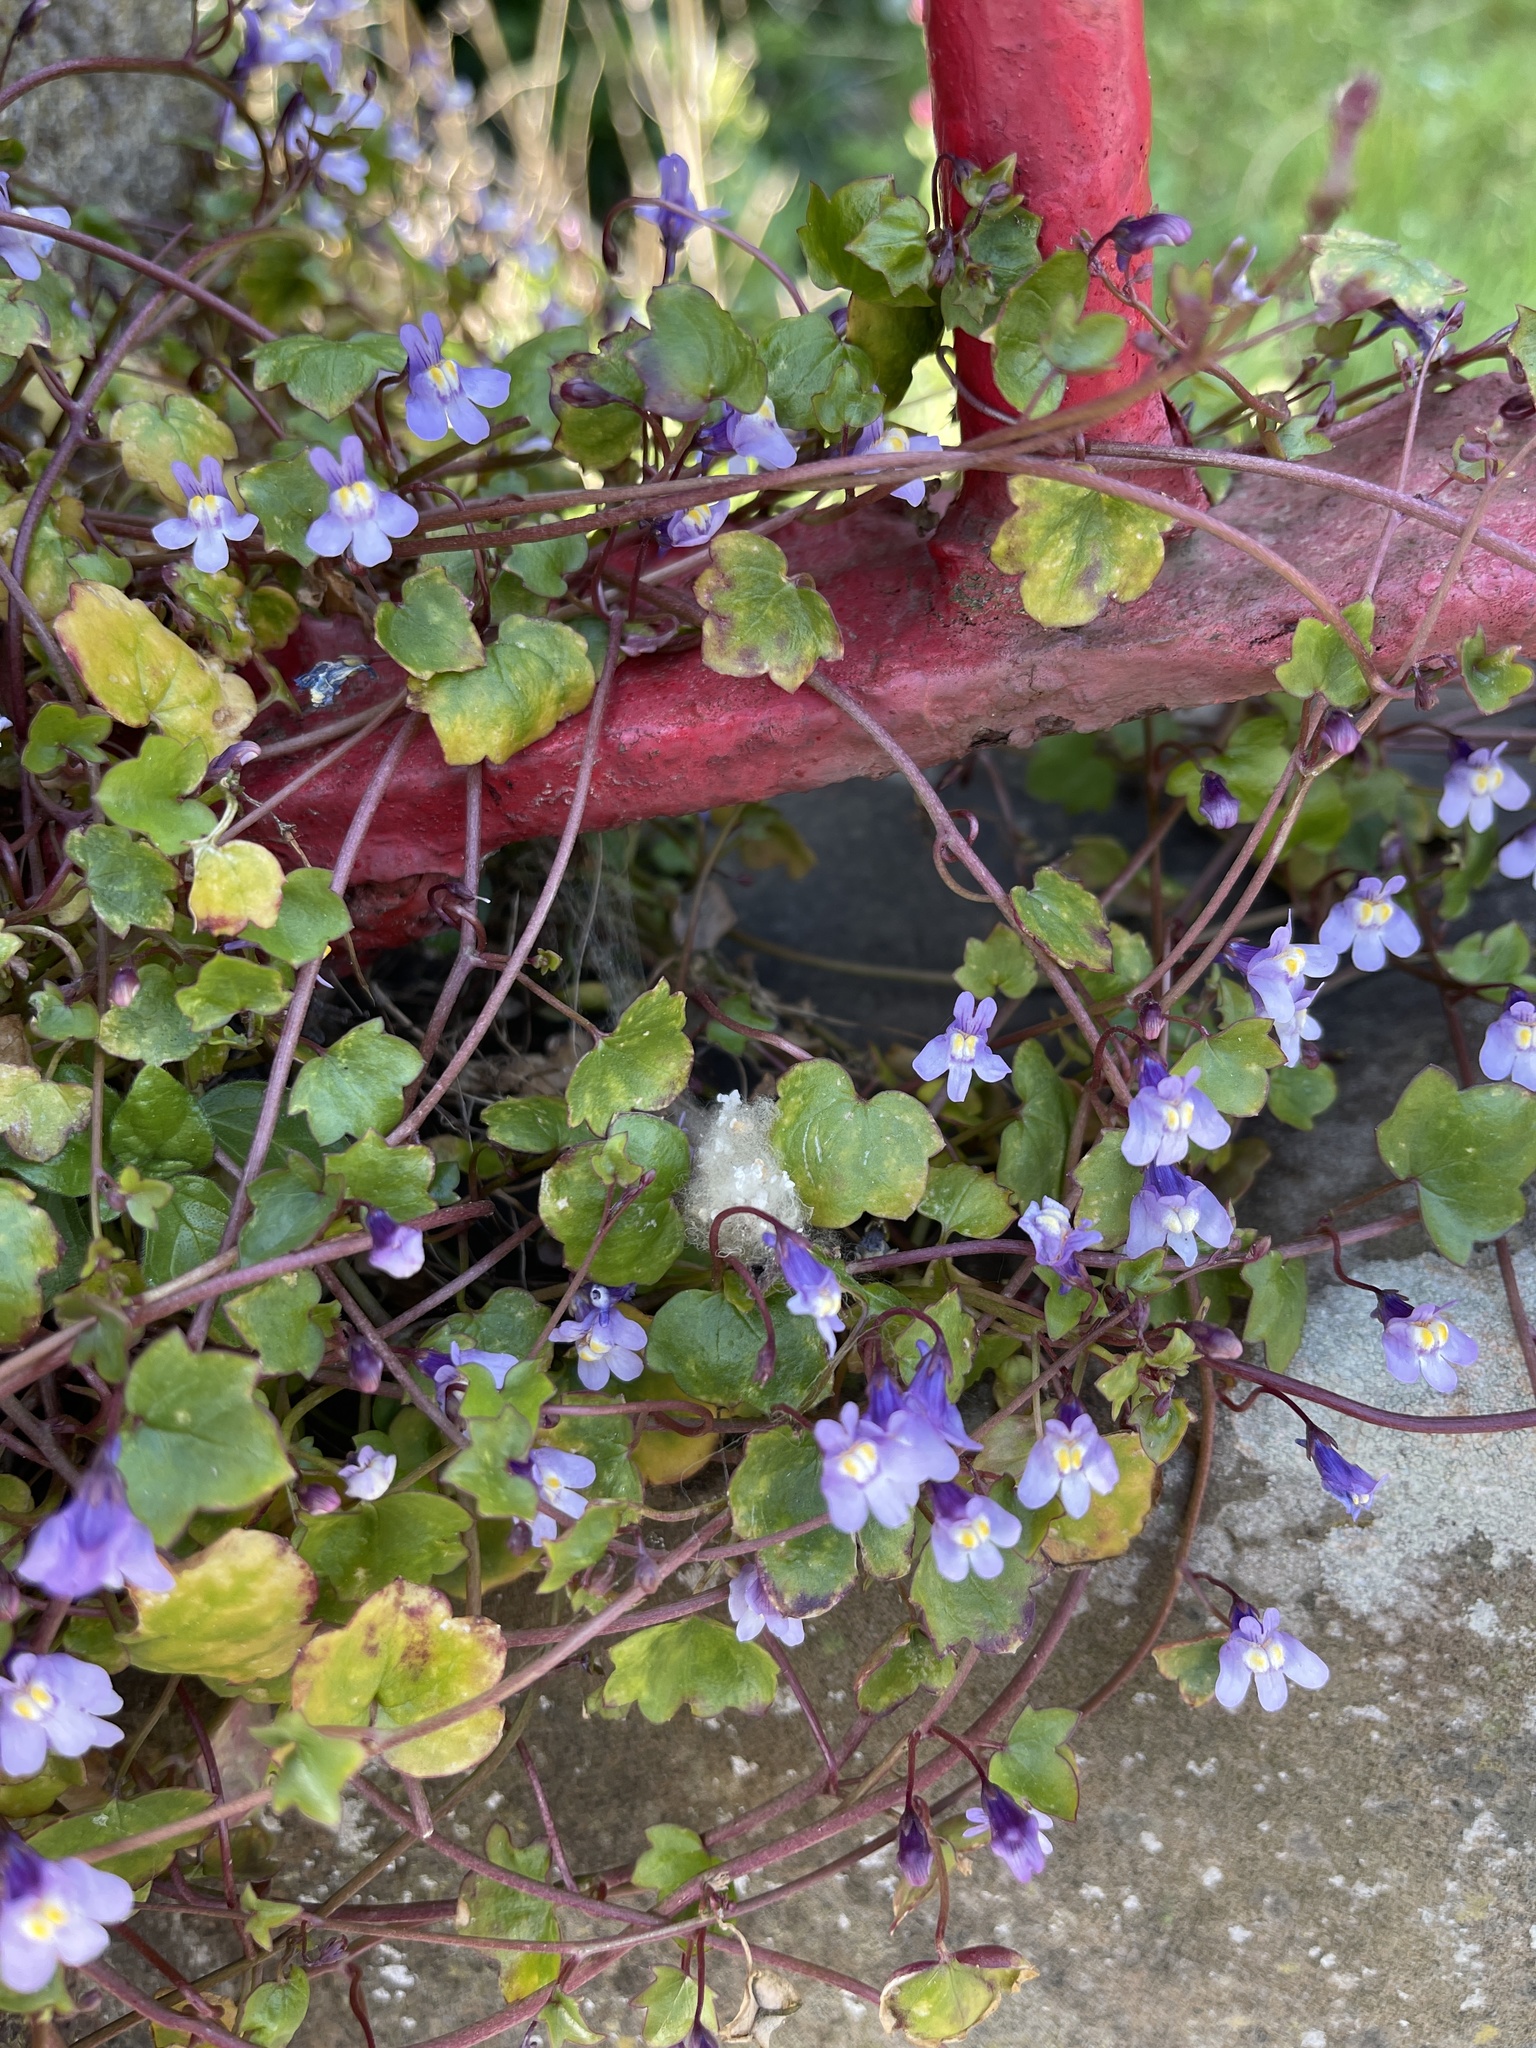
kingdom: Plantae
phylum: Tracheophyta
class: Magnoliopsida
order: Lamiales
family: Plantaginaceae
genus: Cymbalaria
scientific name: Cymbalaria muralis
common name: Ivy-leaved toadflax
